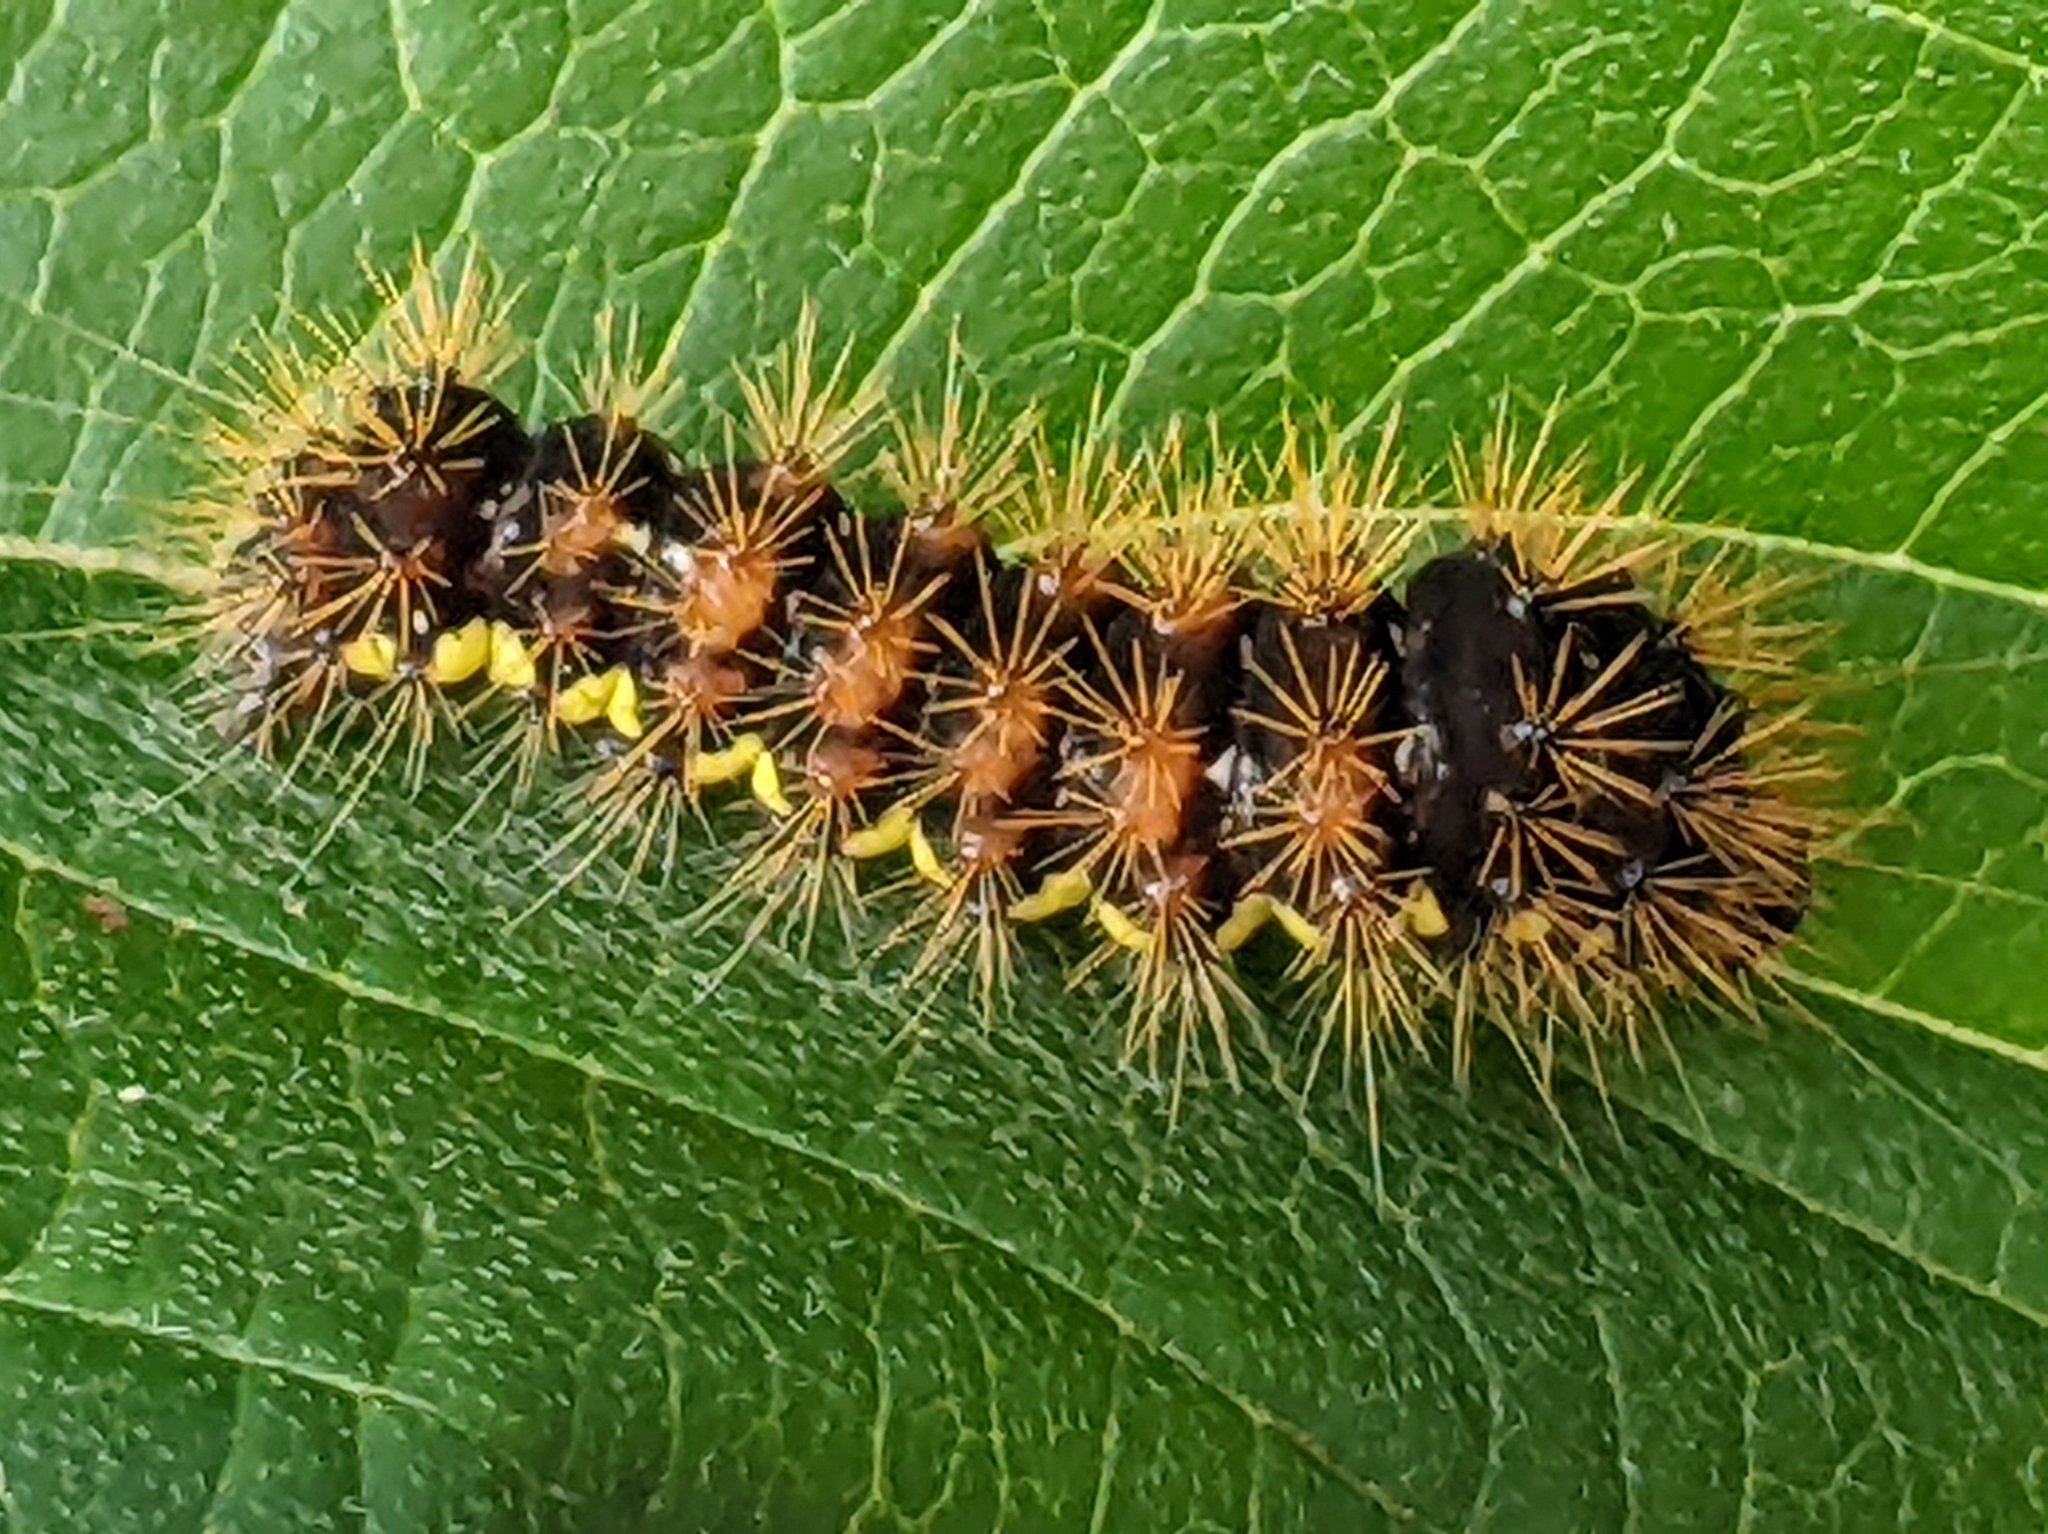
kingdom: Animalia
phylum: Arthropoda
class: Insecta
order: Lepidoptera
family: Noctuidae
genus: Acronicta
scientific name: Acronicta oblinita
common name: Smeared dagger
